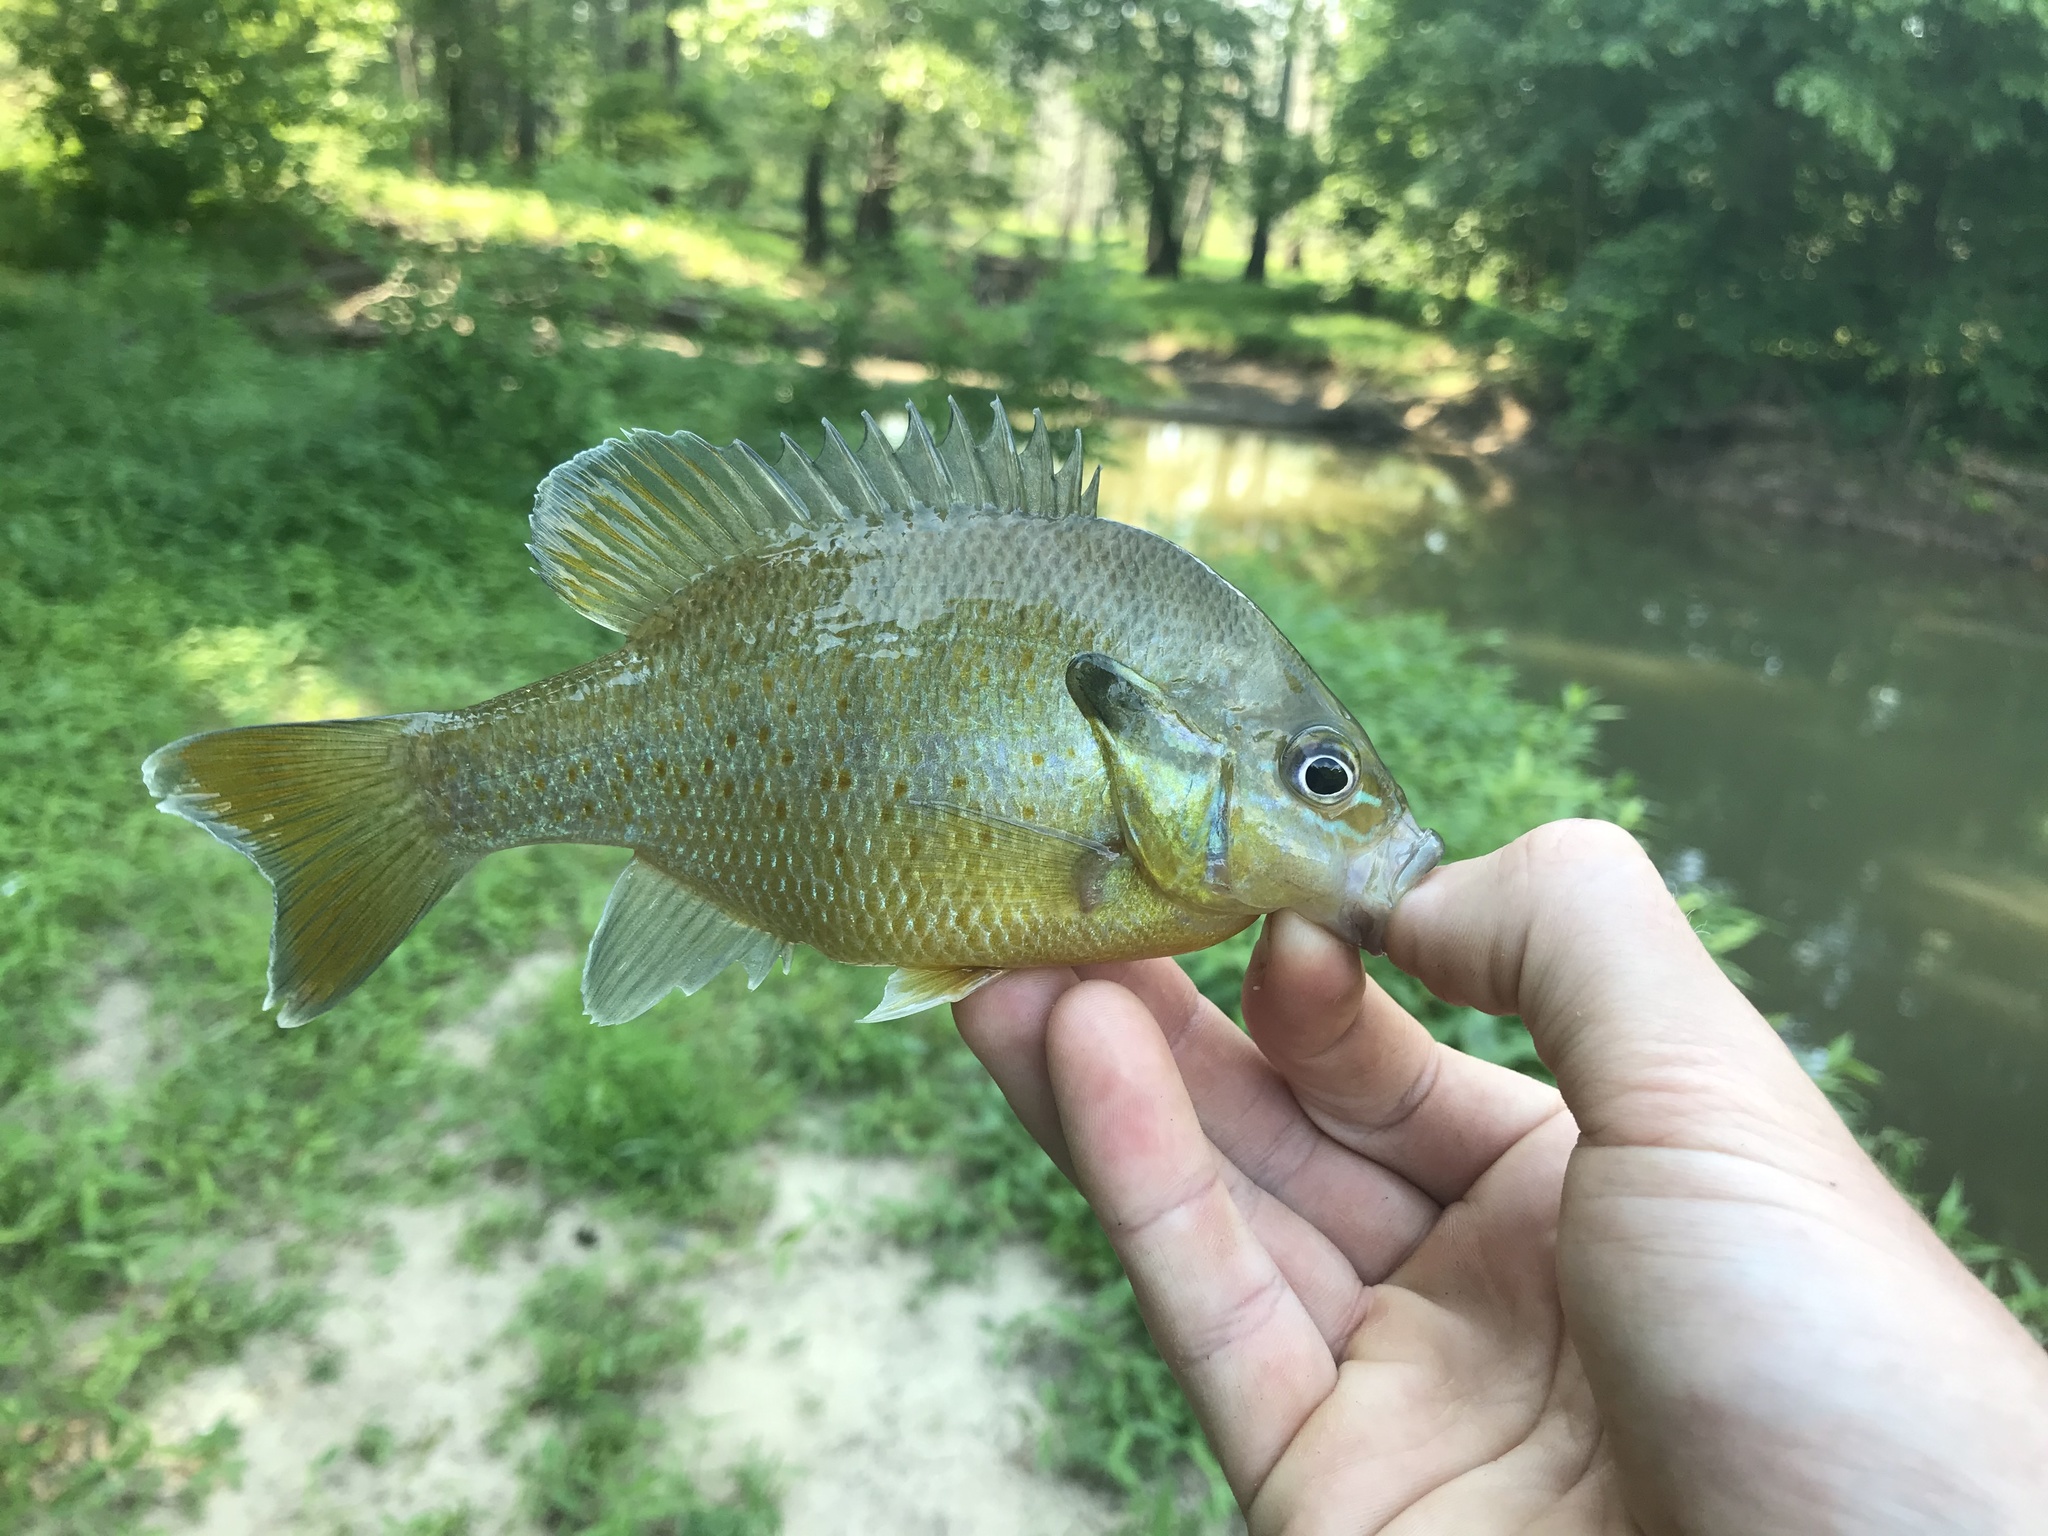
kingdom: Animalia
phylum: Chordata
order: Perciformes
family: Centrarchidae
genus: Lepomis
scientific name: Lepomis auritus
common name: Redbreast sunfish
